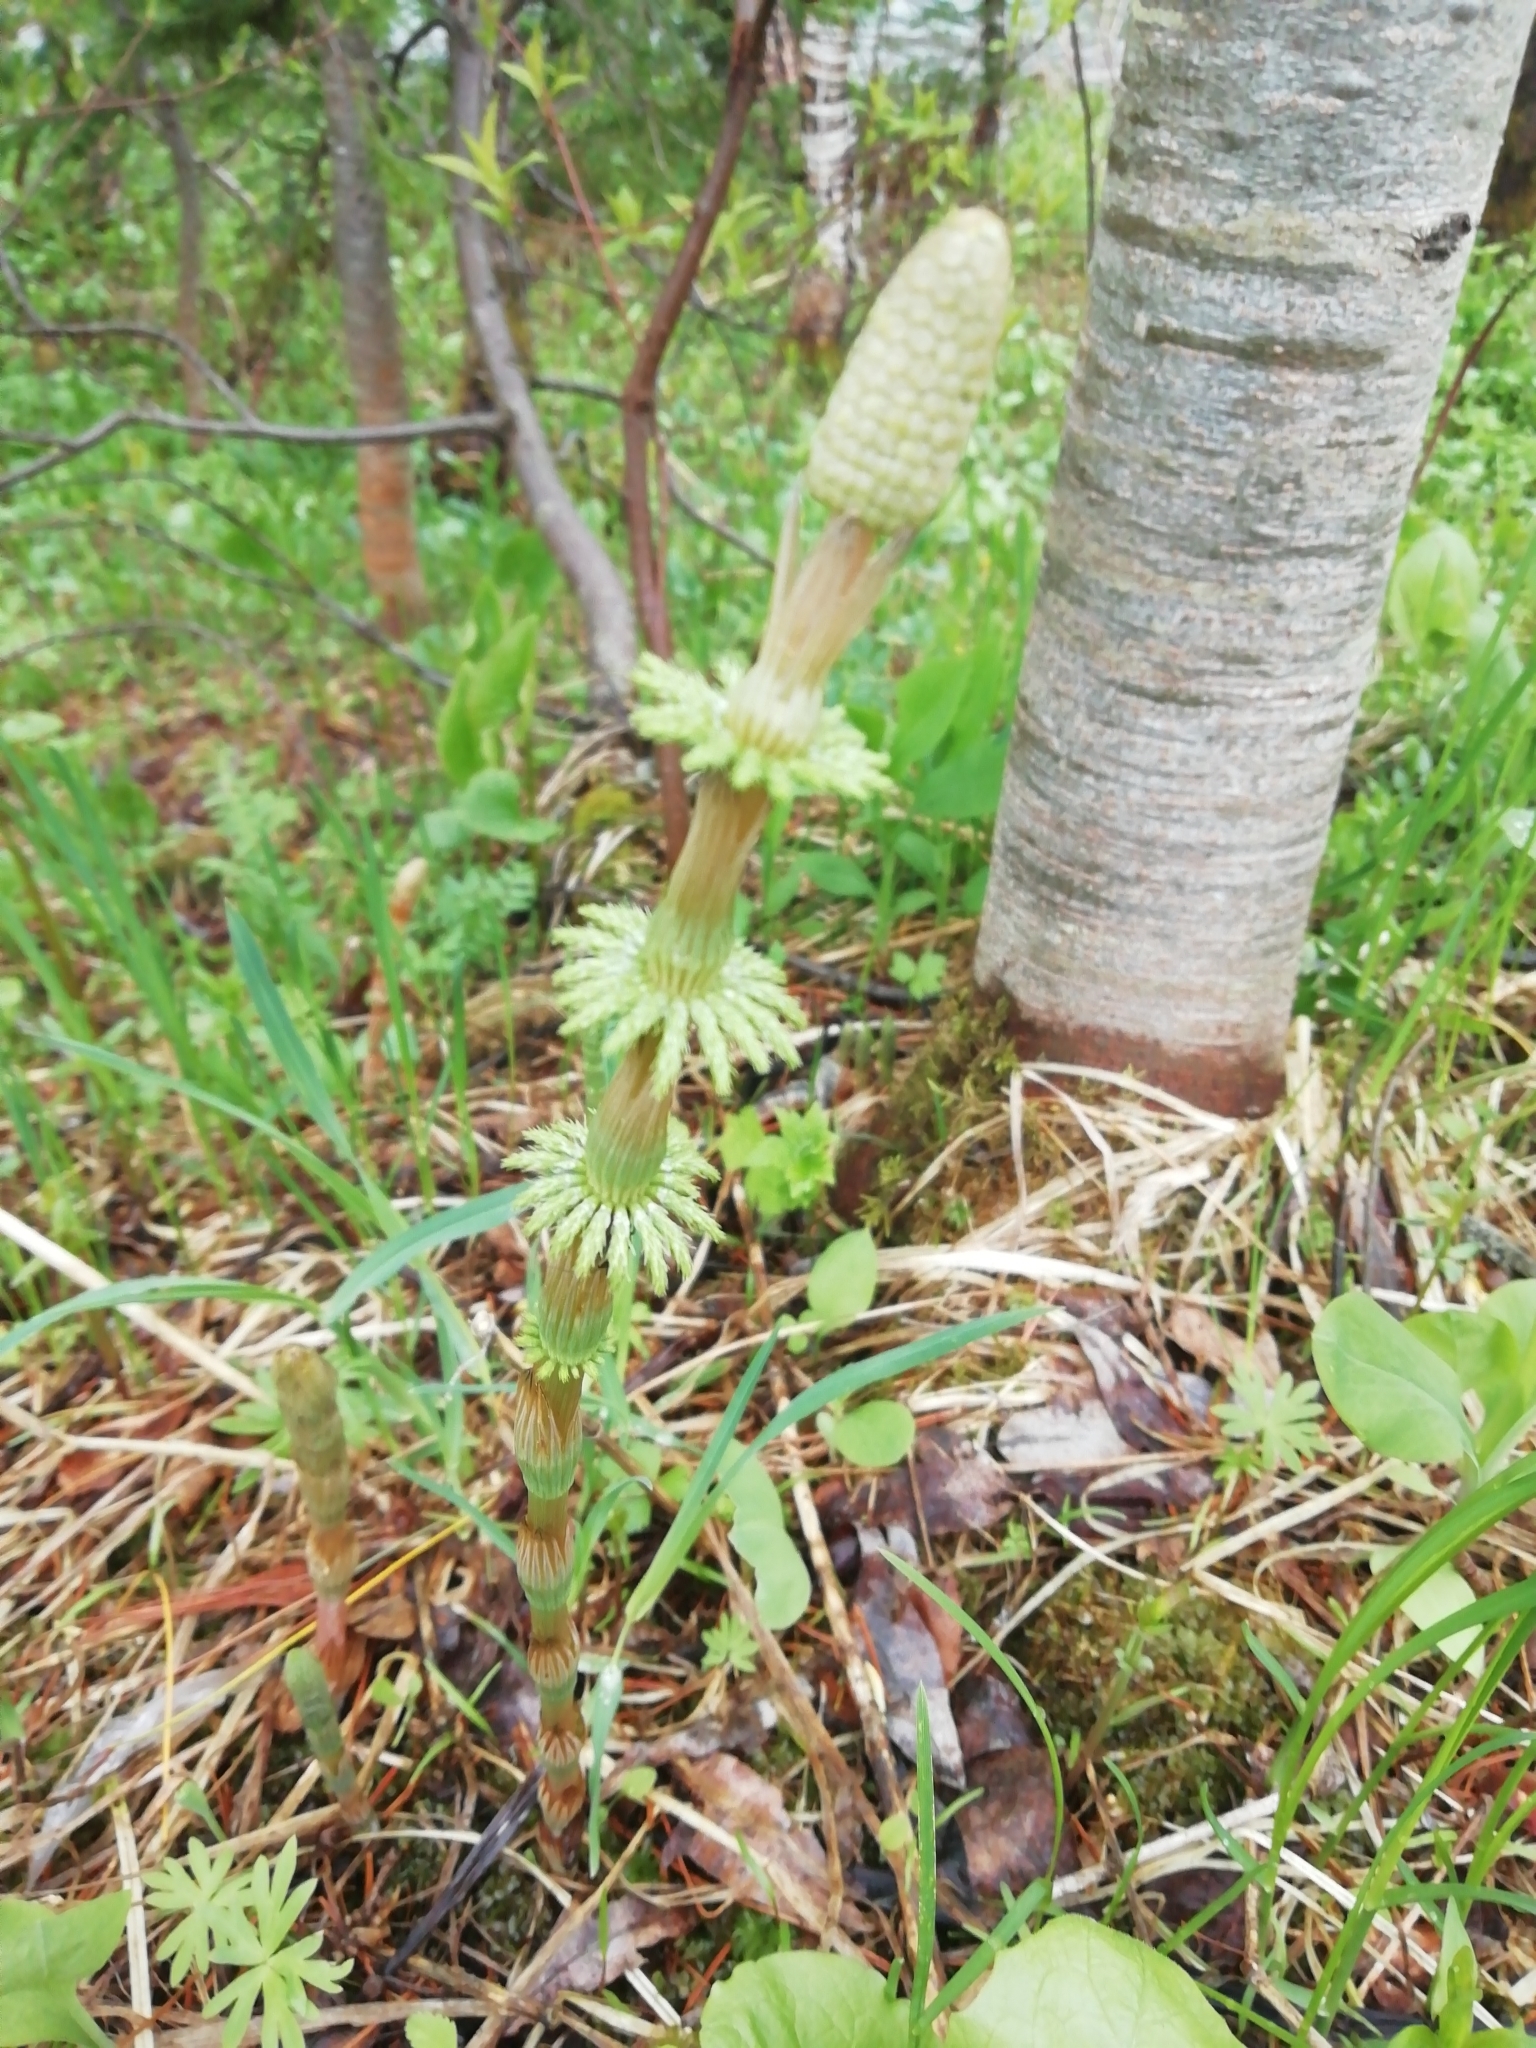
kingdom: Plantae
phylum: Tracheophyta
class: Polypodiopsida
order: Equisetales
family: Equisetaceae
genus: Equisetum
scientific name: Equisetum sylvaticum
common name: Wood horsetail
